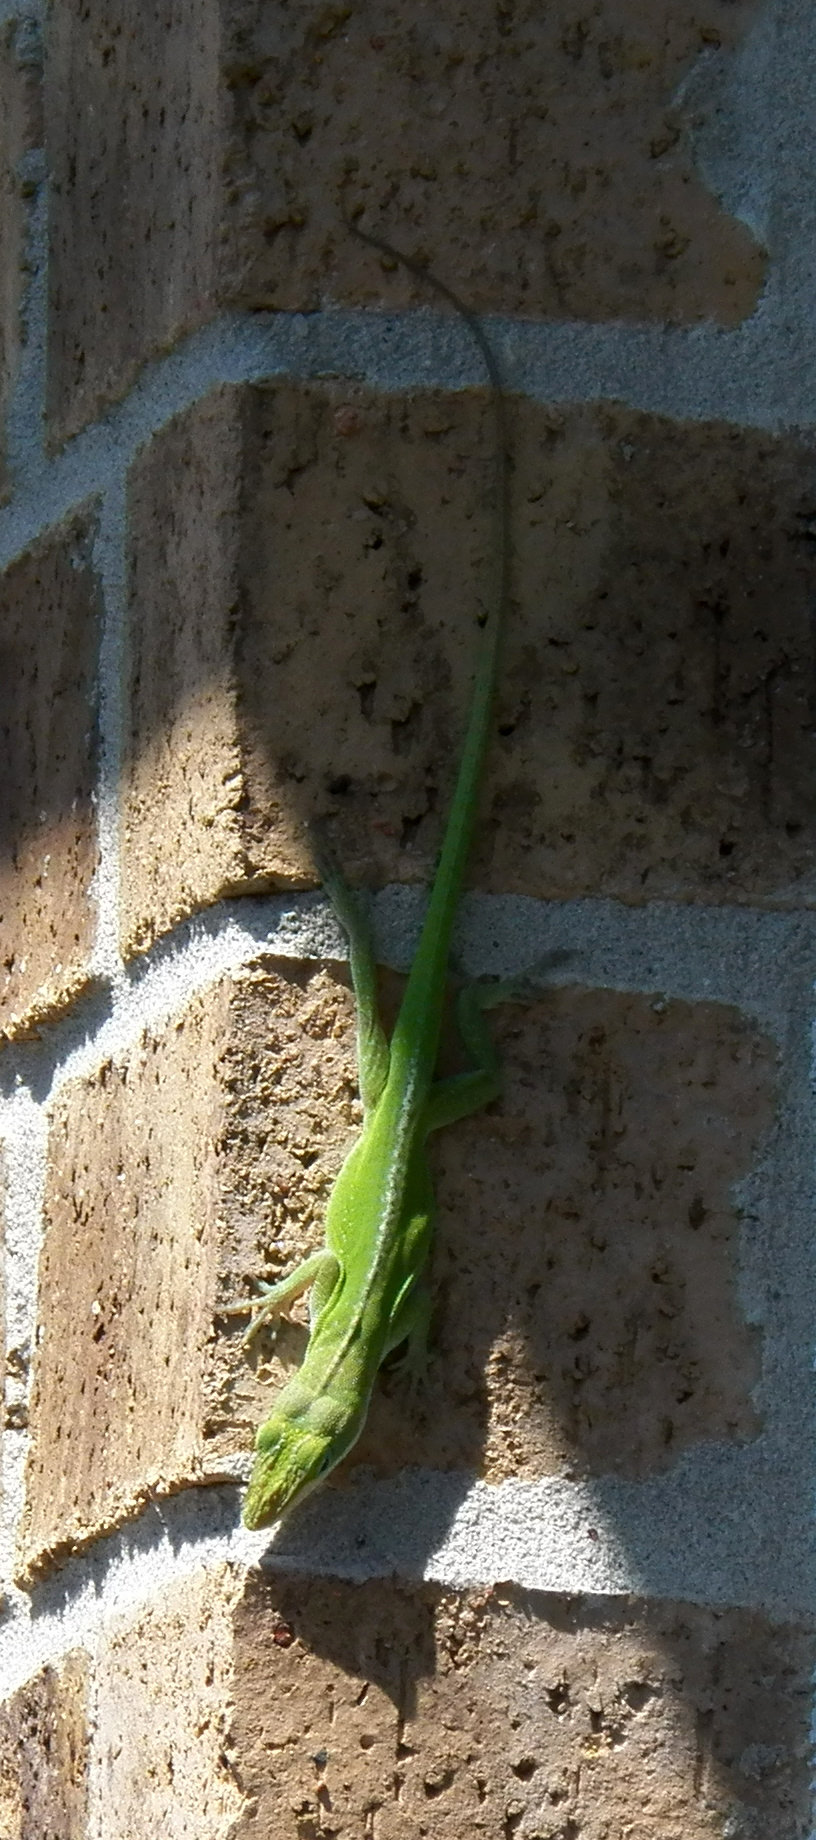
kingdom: Animalia
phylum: Chordata
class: Squamata
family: Dactyloidae
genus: Anolis
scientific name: Anolis carolinensis
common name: Green anole
